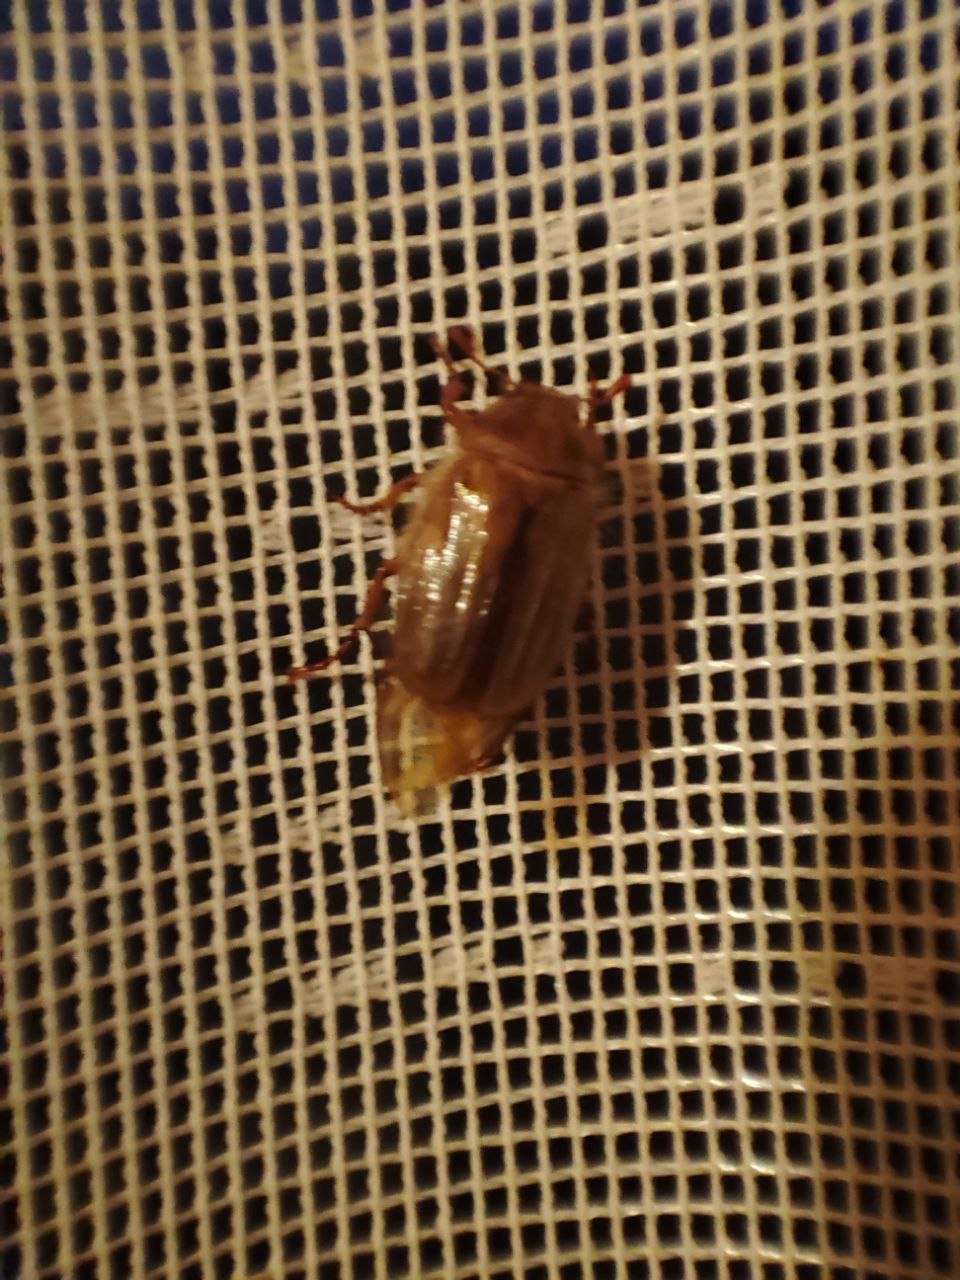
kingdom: Animalia
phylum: Arthropoda
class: Insecta
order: Coleoptera
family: Scarabaeidae
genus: Amphimallon
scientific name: Amphimallon solstitiale
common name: Summer chafer
